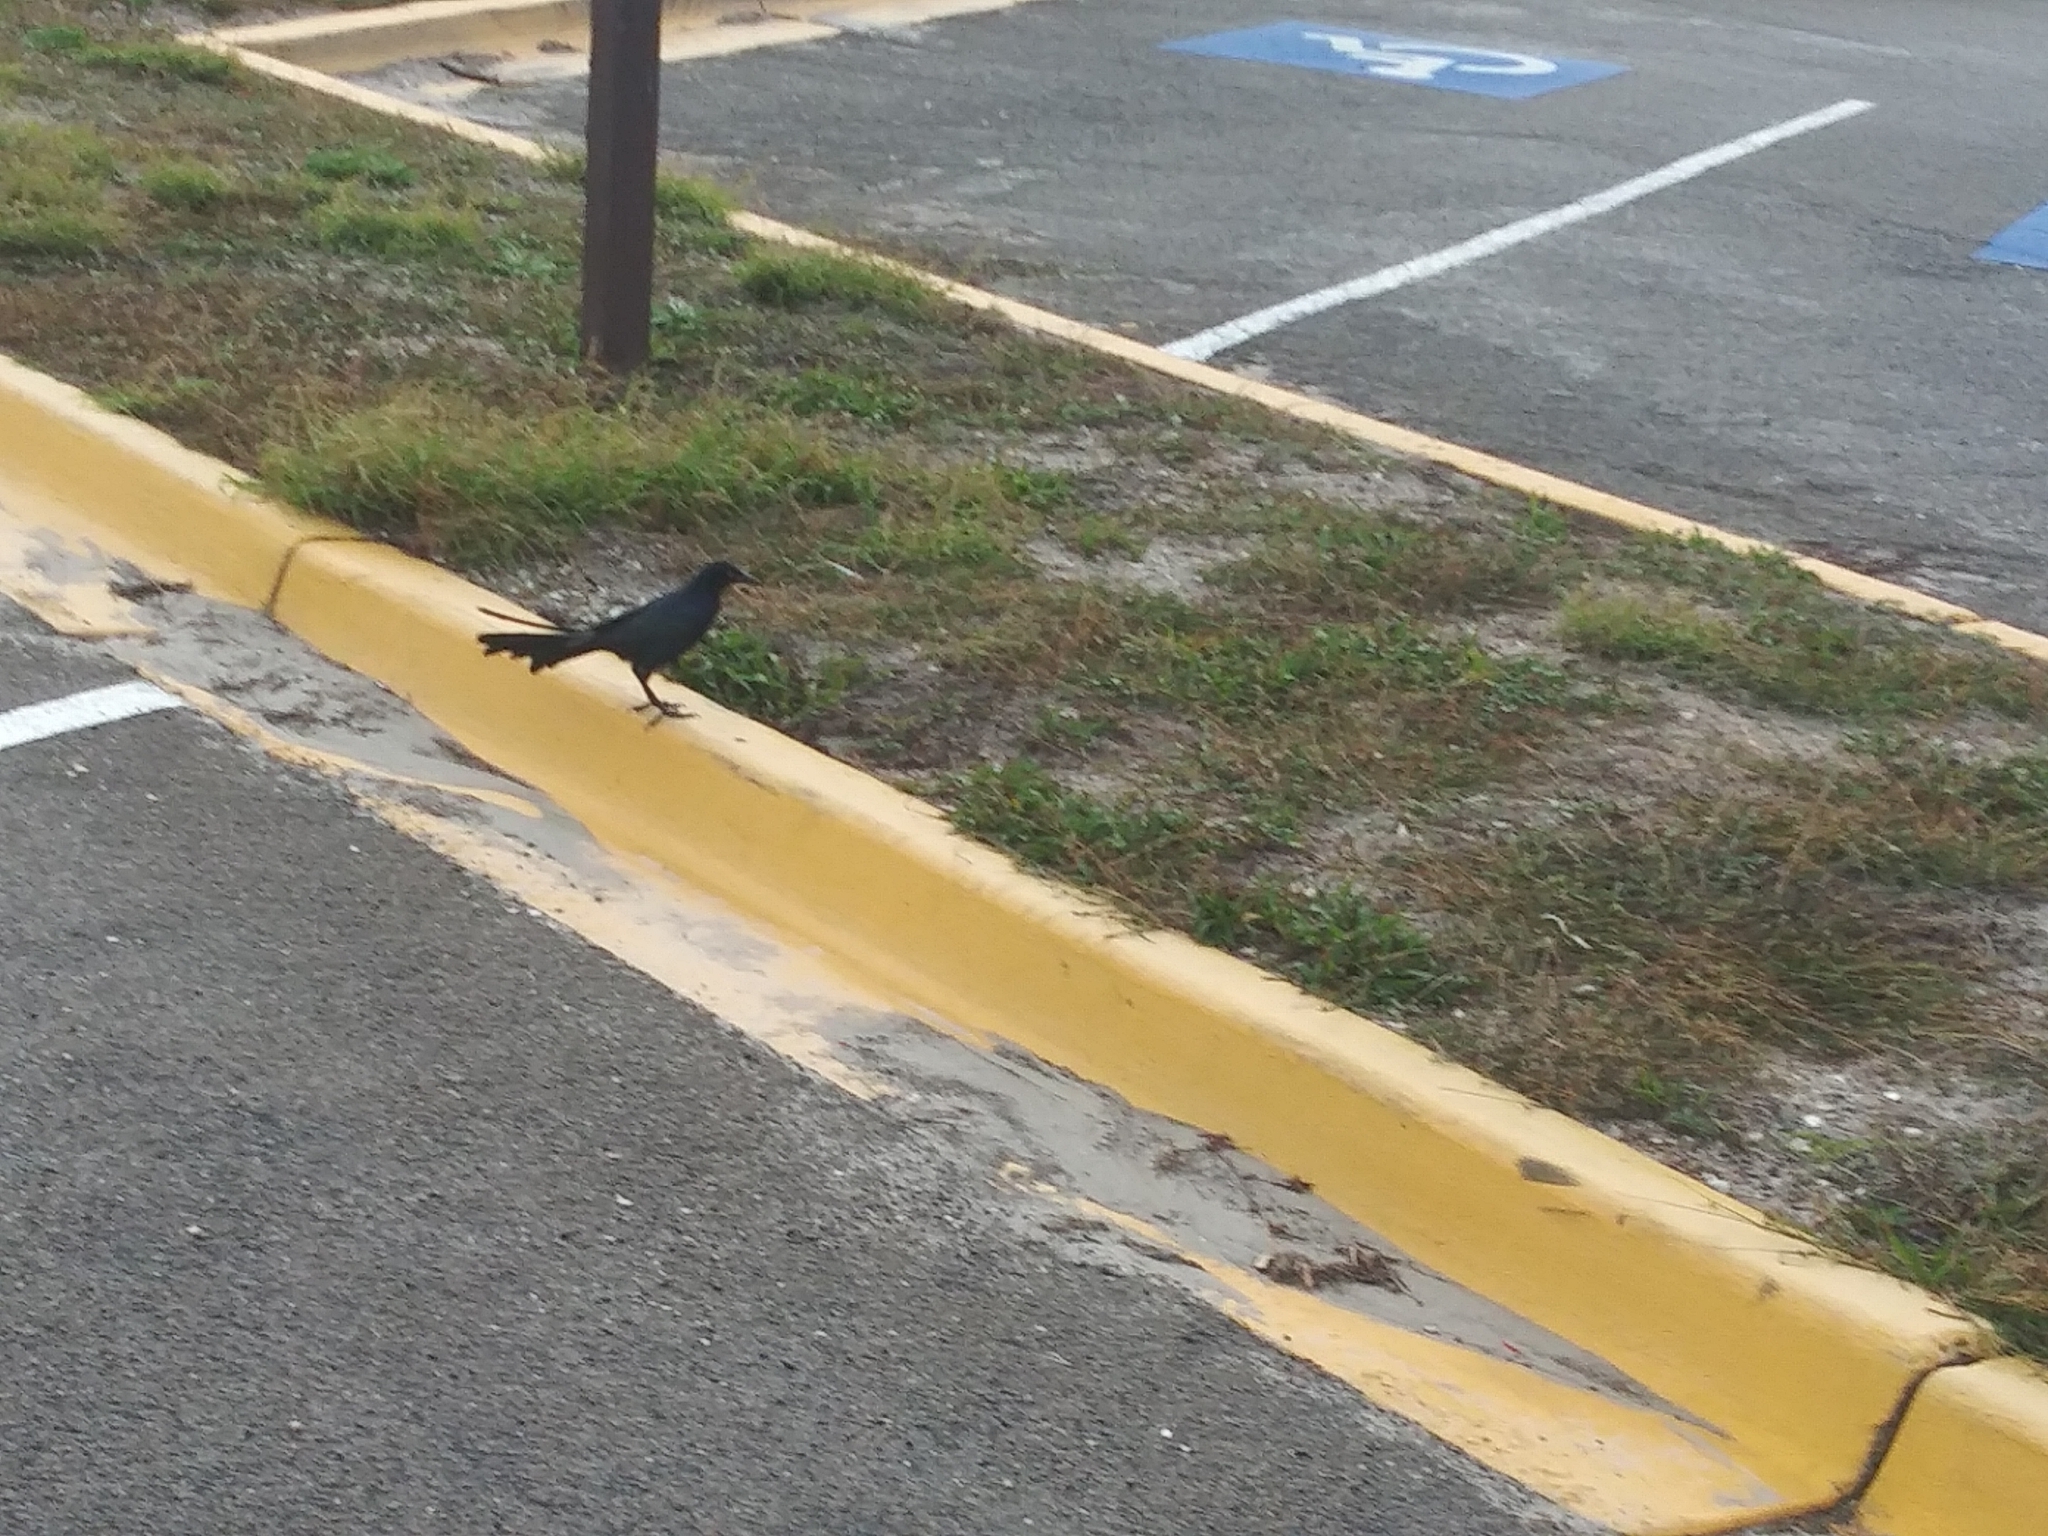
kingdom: Animalia
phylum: Chordata
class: Aves
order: Passeriformes
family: Icteridae
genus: Quiscalus
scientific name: Quiscalus mexicanus
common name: Great-tailed grackle
